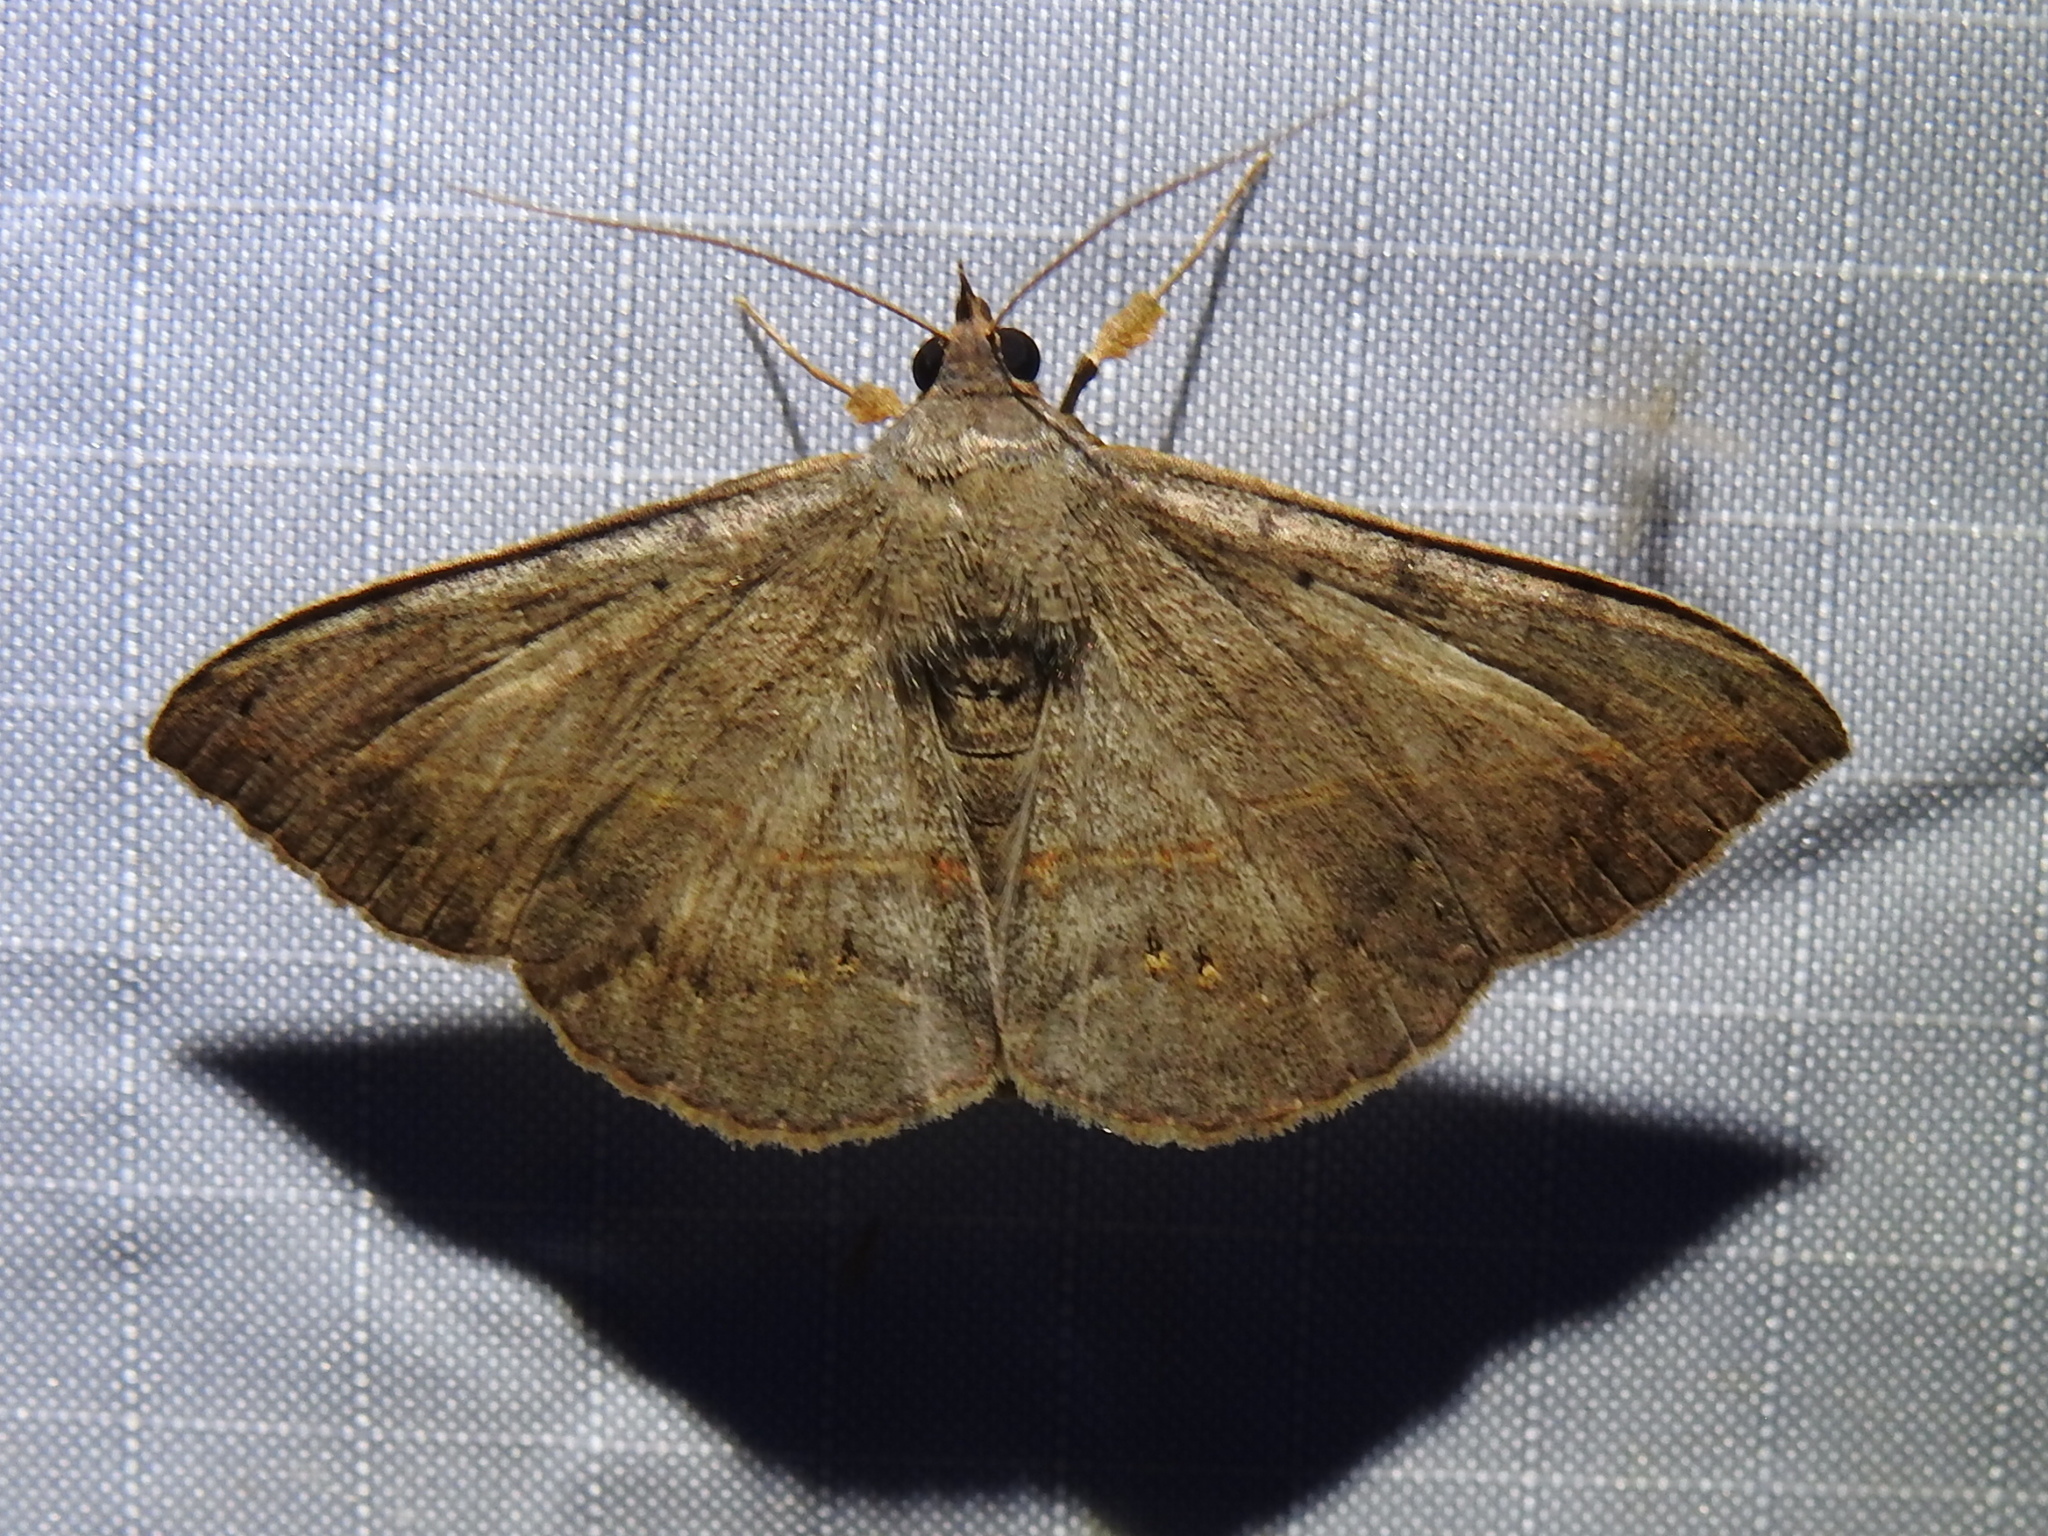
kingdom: Animalia
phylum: Arthropoda
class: Insecta
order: Lepidoptera
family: Erebidae
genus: Anticarsia
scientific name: Anticarsia gemmatalis
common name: Cutworm moth
